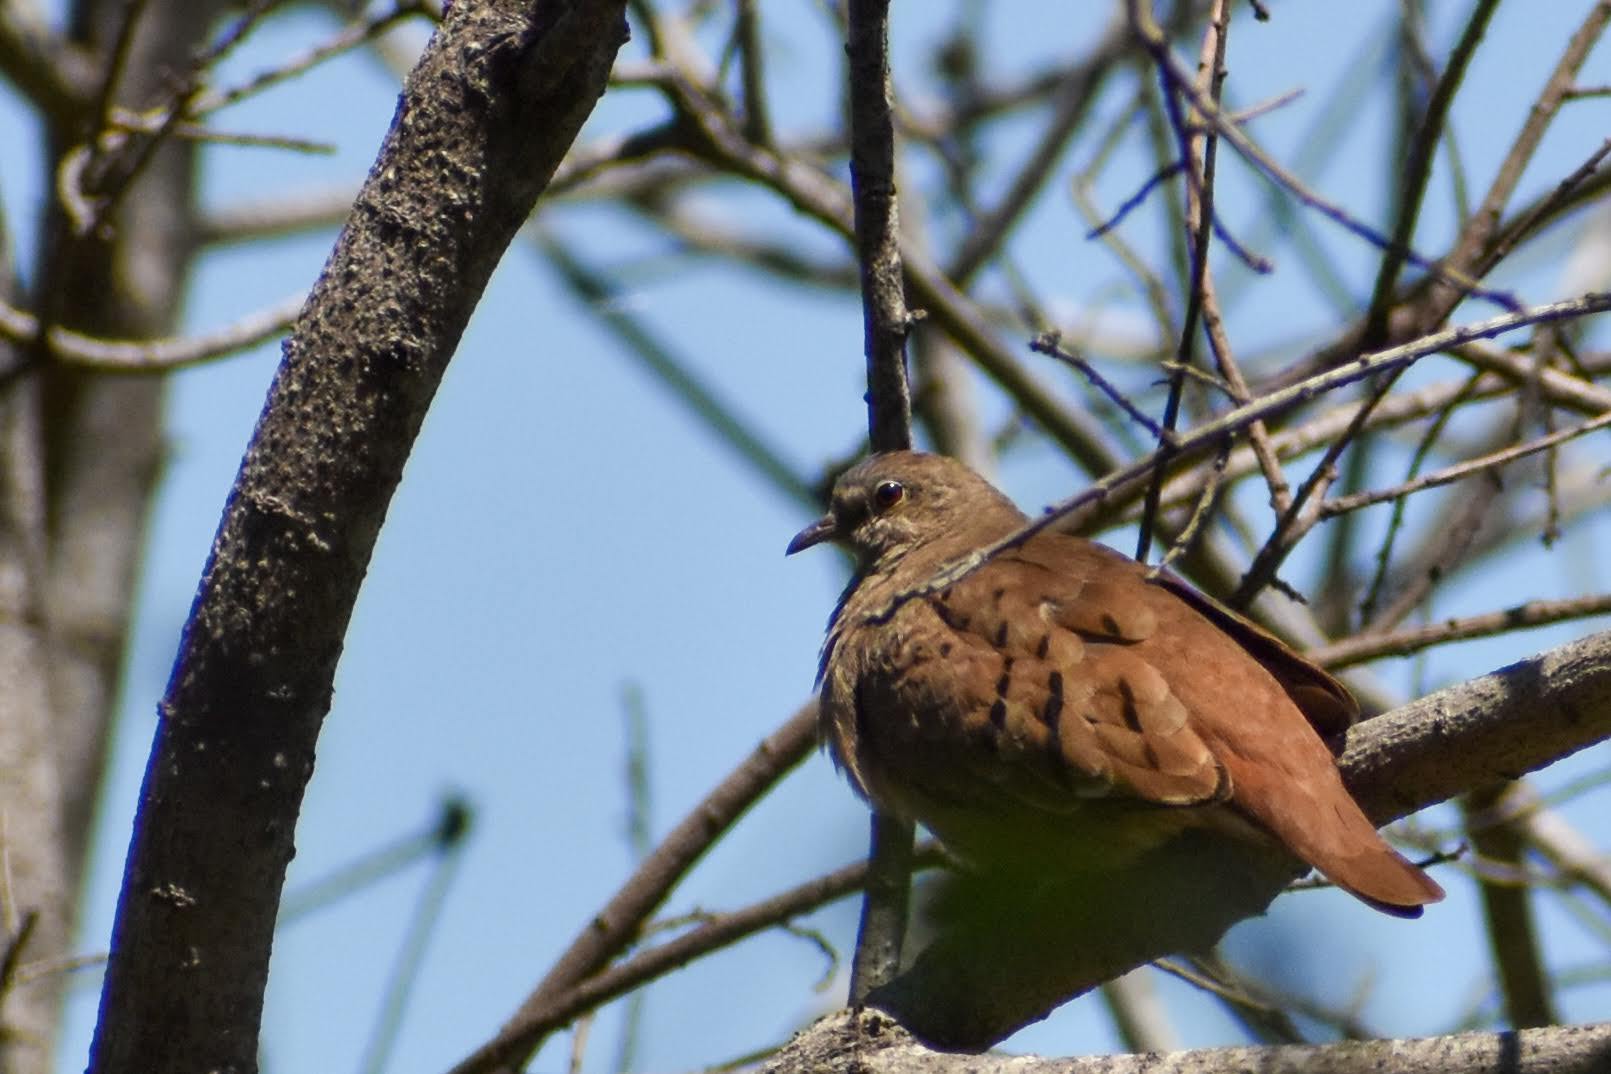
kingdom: Animalia
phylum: Chordata
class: Aves
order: Columbiformes
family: Columbidae
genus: Columbina
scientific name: Columbina talpacoti
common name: Ruddy ground dove
